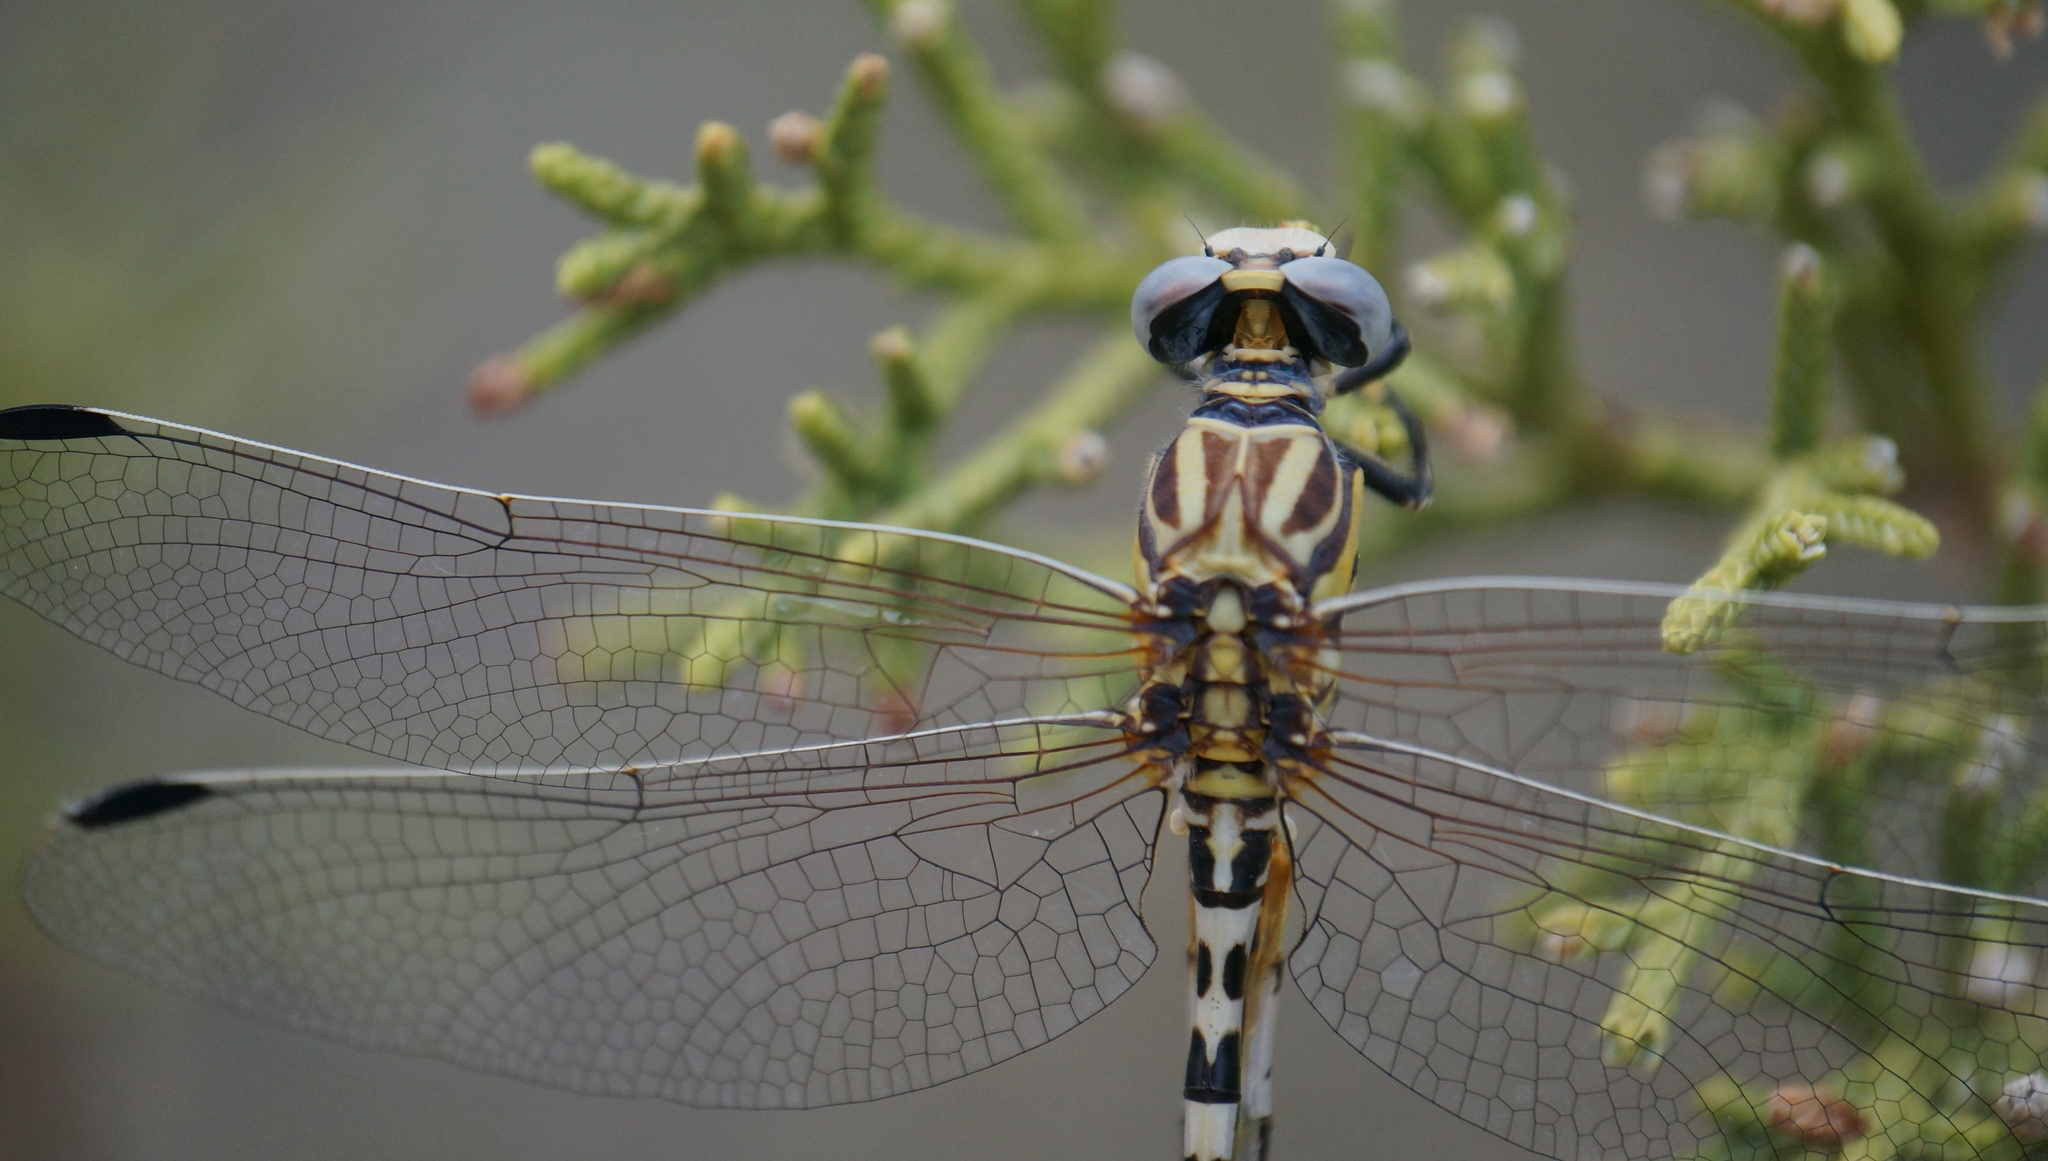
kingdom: Animalia
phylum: Arthropoda
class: Insecta
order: Odonata
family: Gomphidae
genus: Erpetogomphus
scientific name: Erpetogomphus compositus
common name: White-belted ringtail
